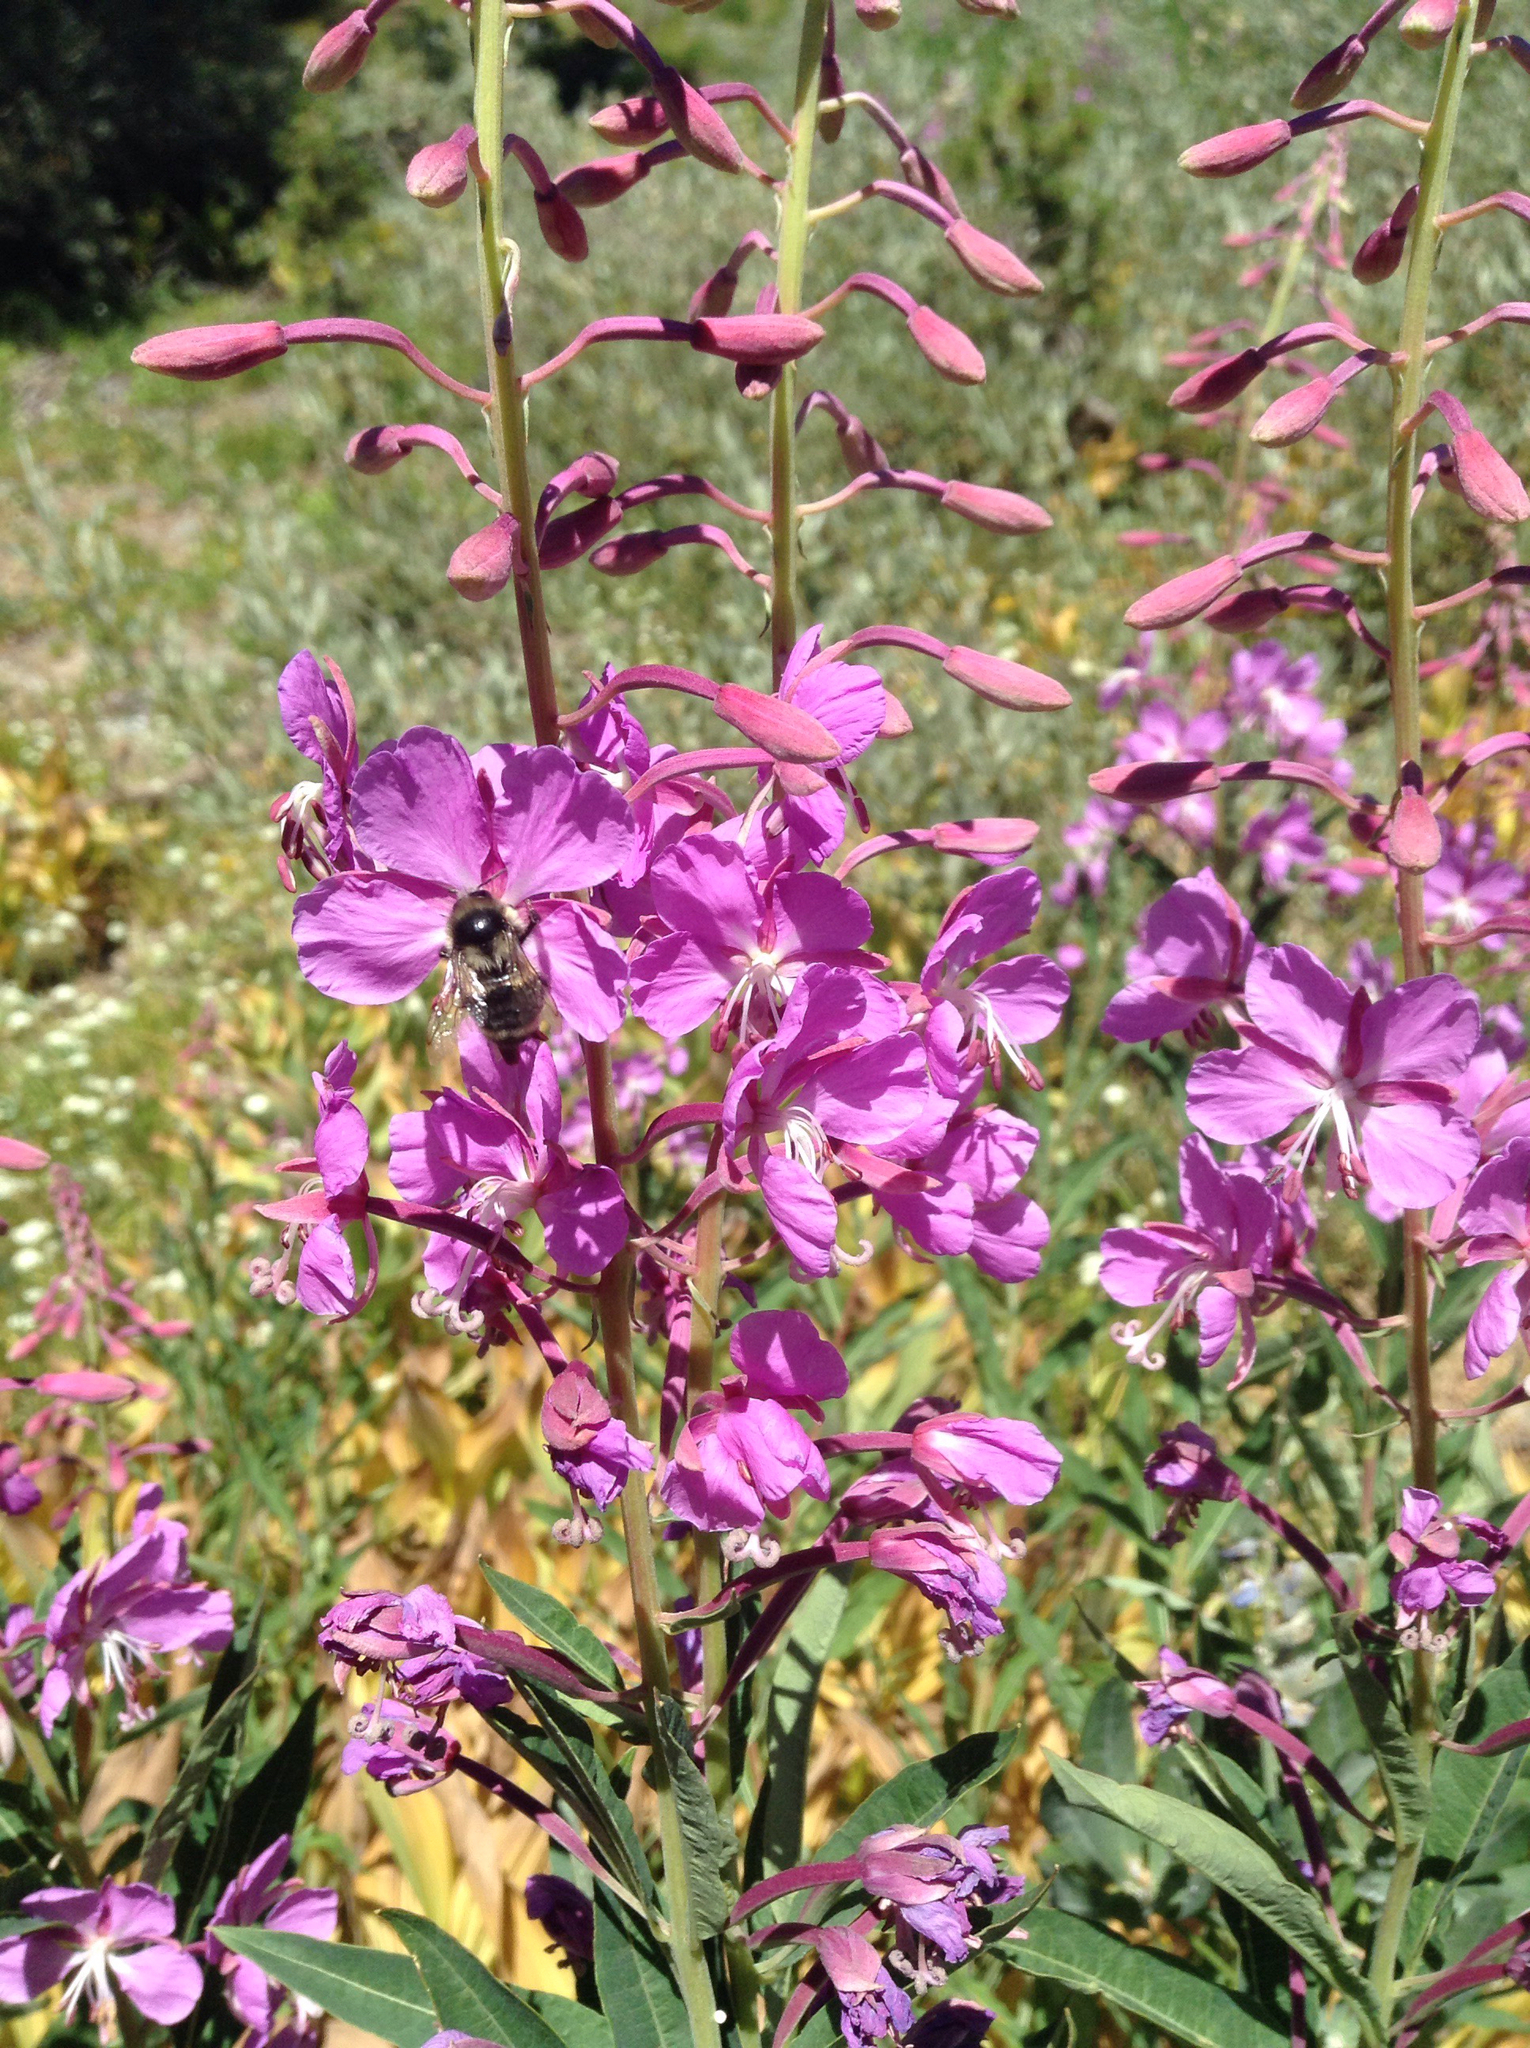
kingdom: Plantae
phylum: Tracheophyta
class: Magnoliopsida
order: Myrtales
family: Onagraceae
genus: Chamaenerion
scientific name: Chamaenerion angustifolium
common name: Fireweed
